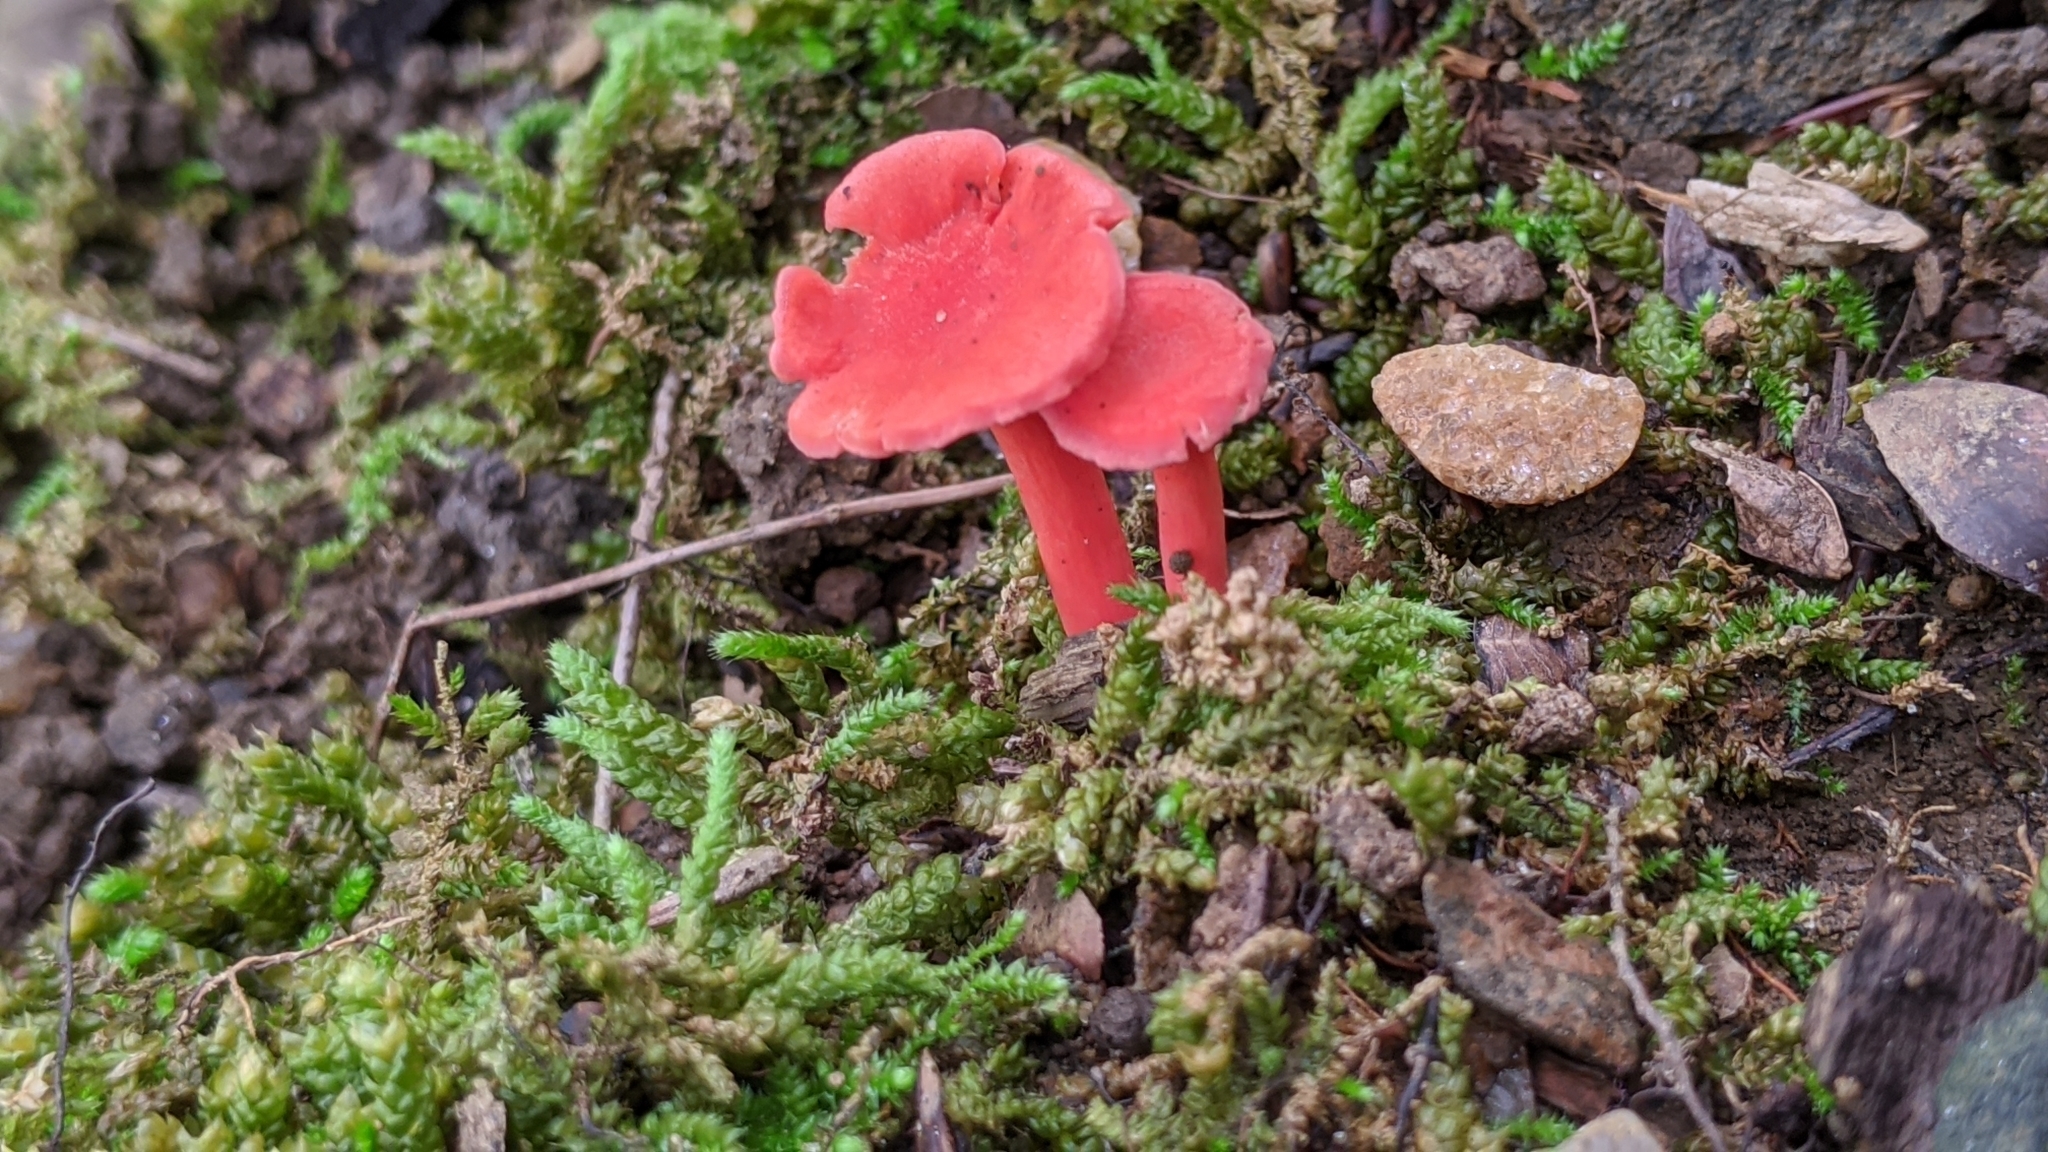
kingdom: Fungi
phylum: Basidiomycota
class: Agaricomycetes
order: Cantharellales
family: Hydnaceae
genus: Cantharellus
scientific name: Cantharellus cinnabarinus
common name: Cinnabar chanterelle
